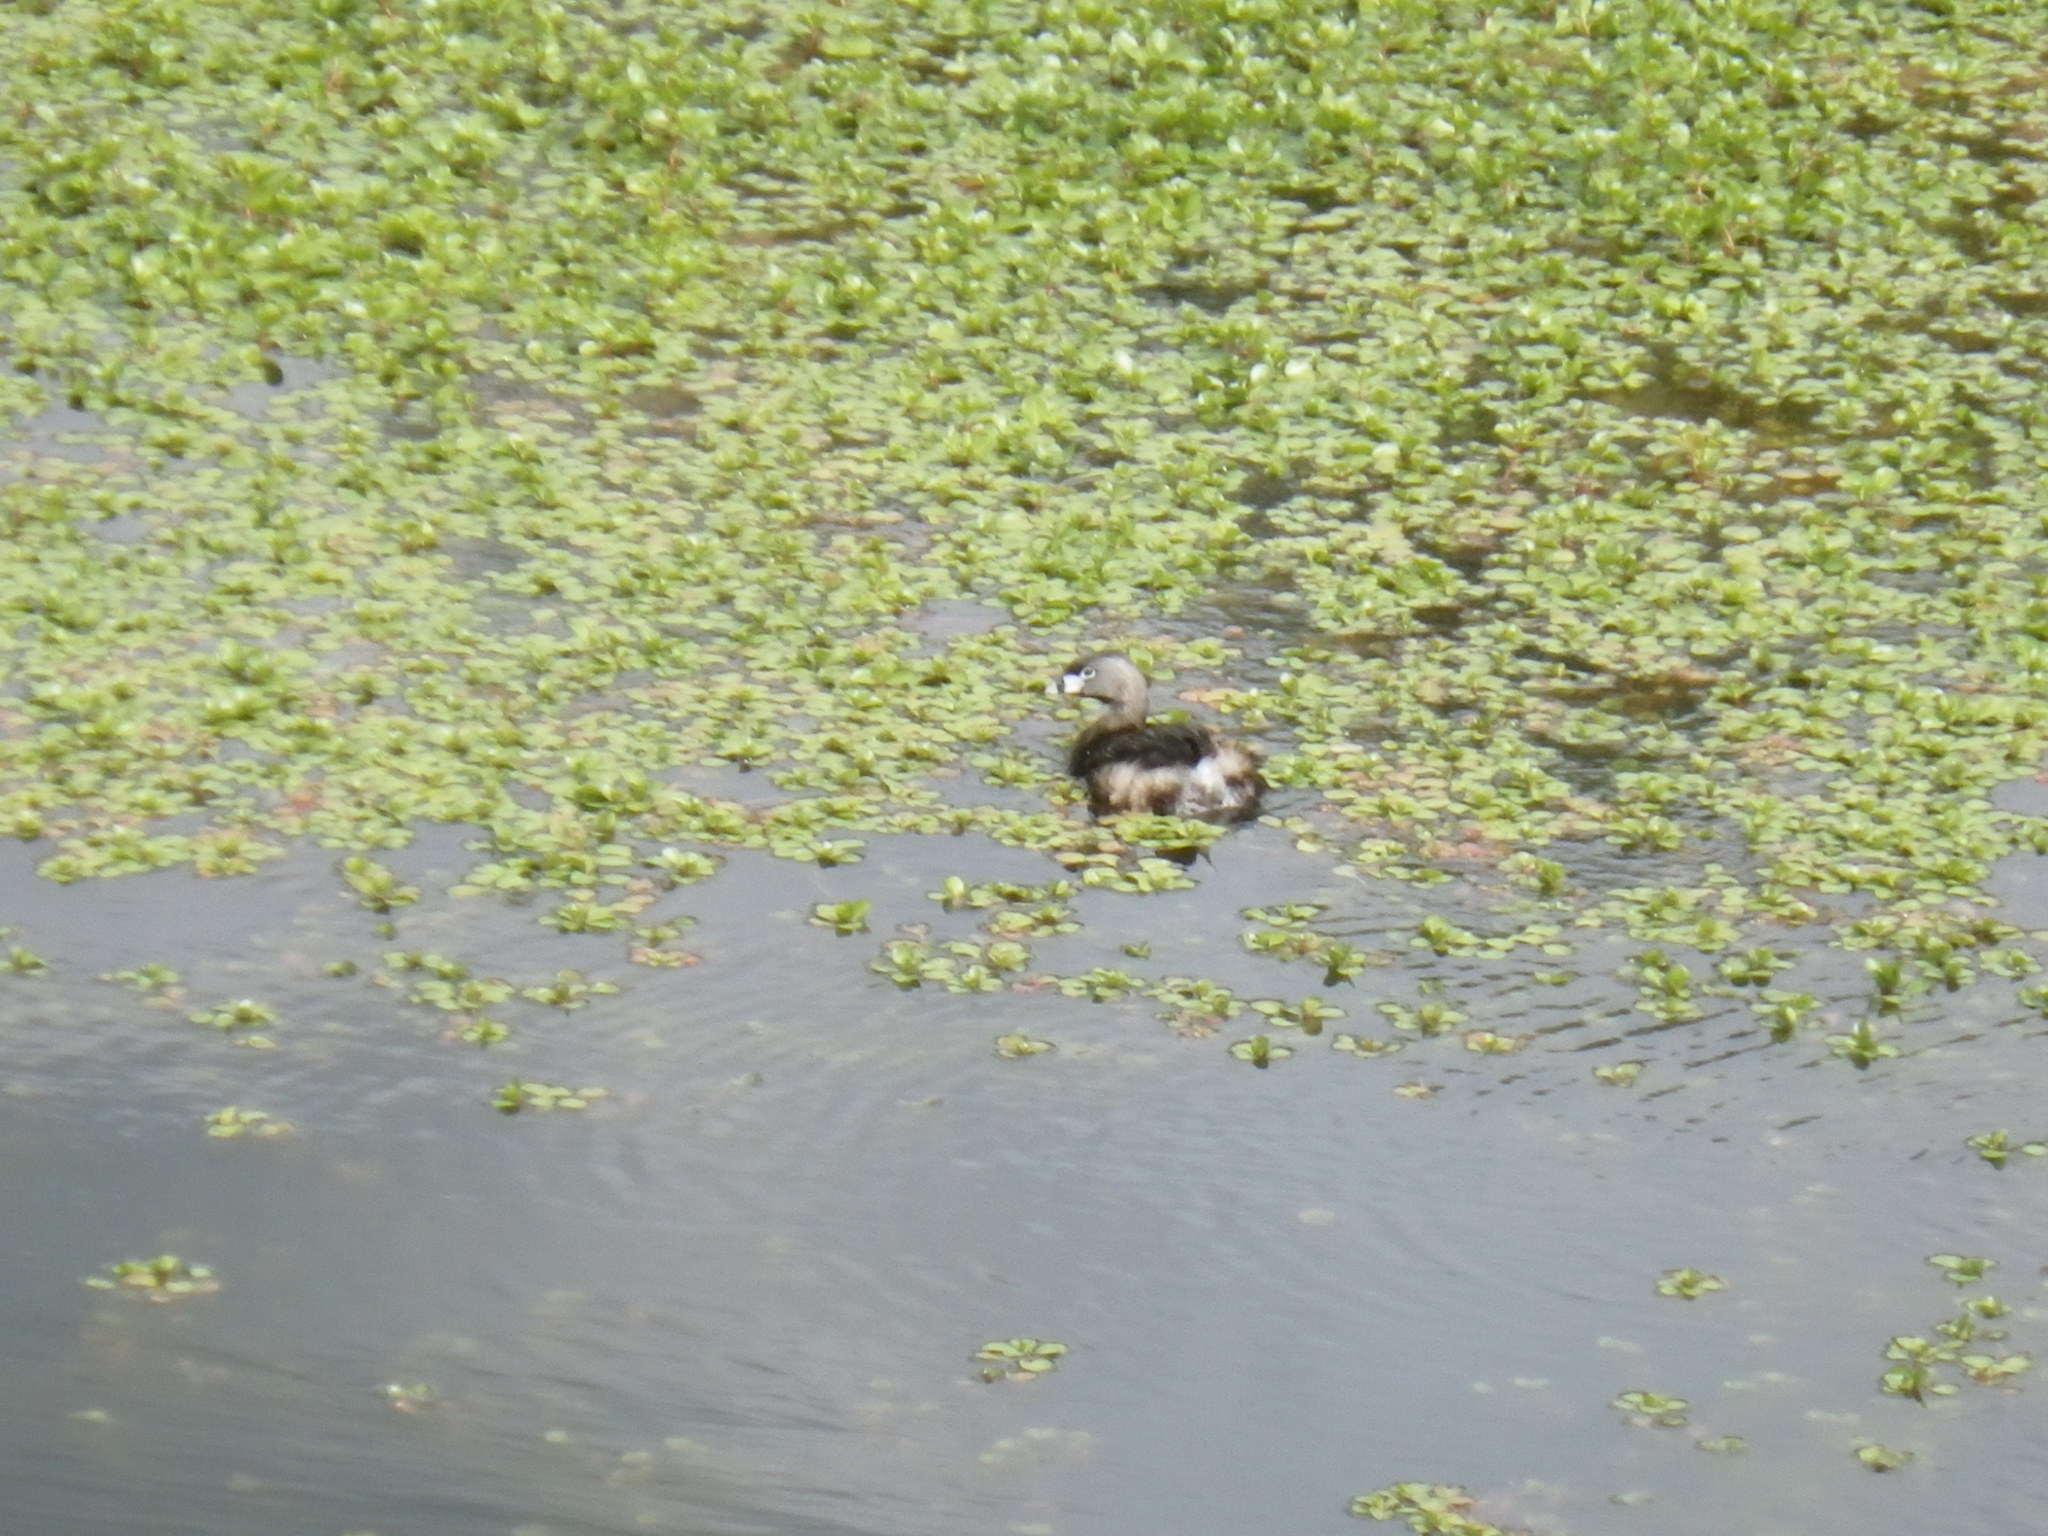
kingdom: Animalia
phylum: Chordata
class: Aves
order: Podicipediformes
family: Podicipedidae
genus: Podilymbus
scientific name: Podilymbus podiceps
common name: Pied-billed grebe
